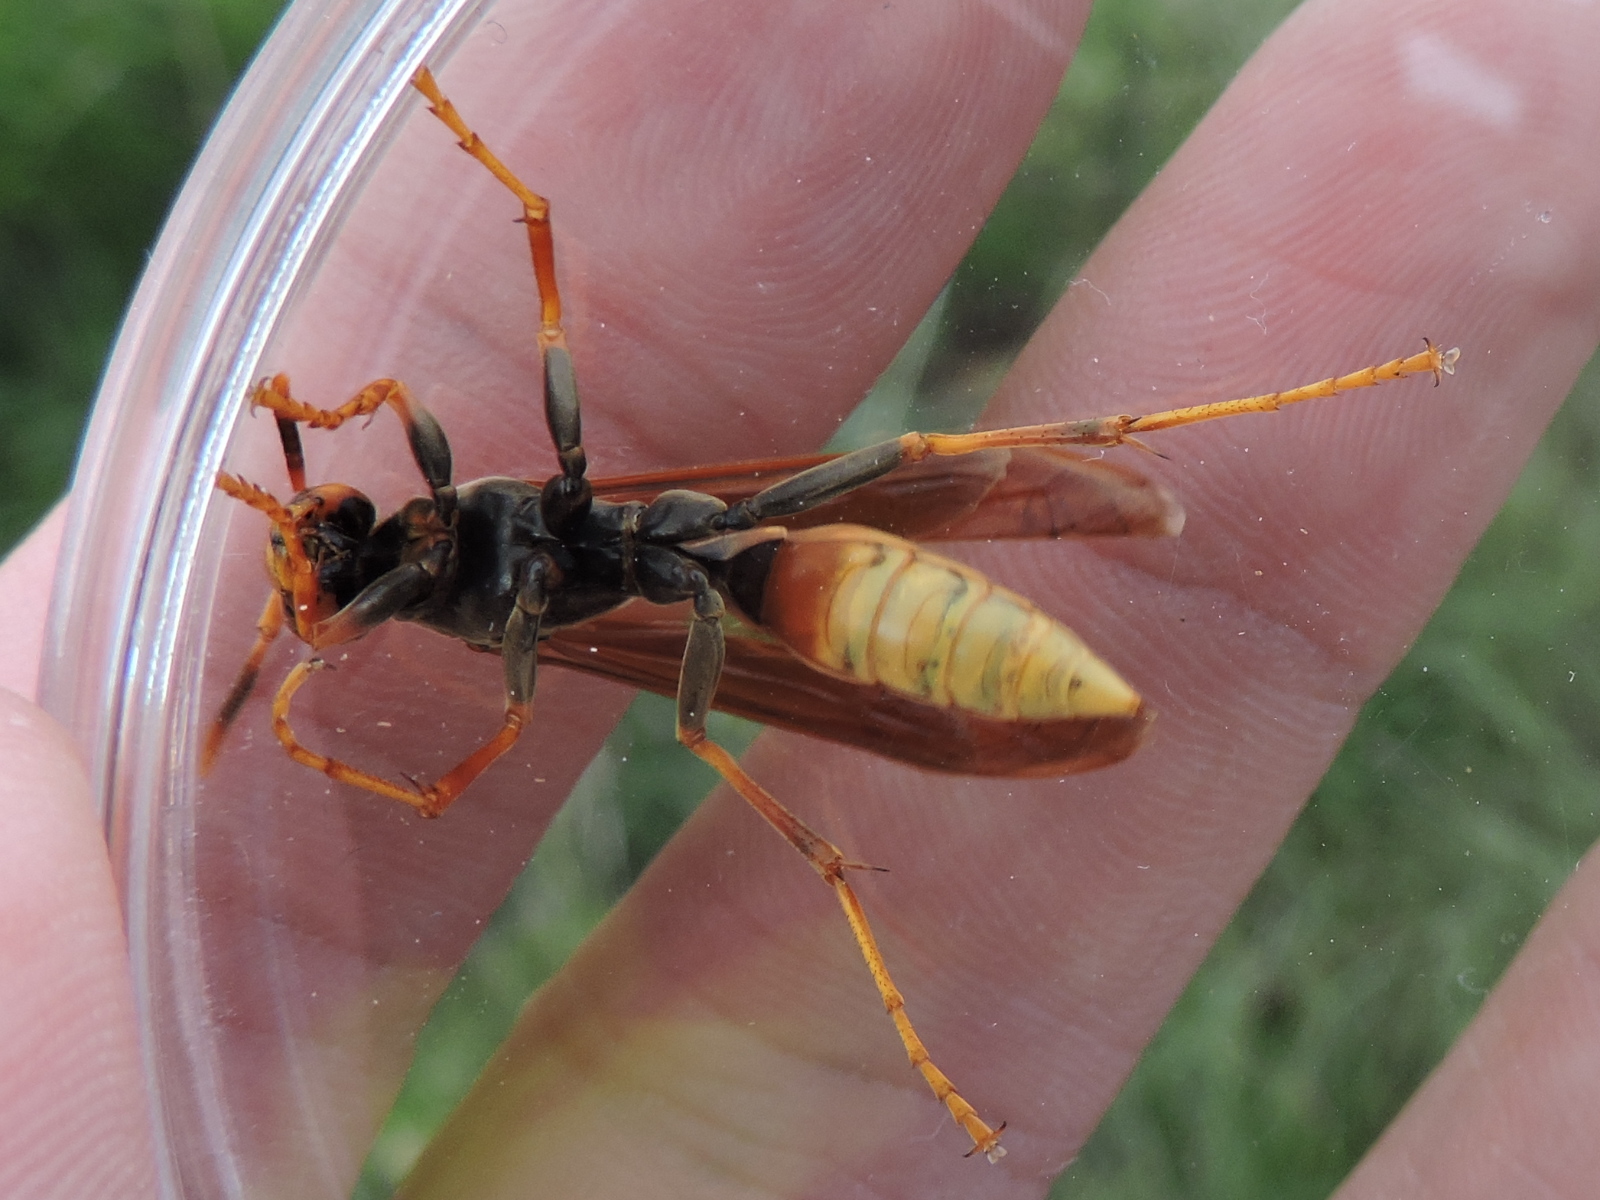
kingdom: Animalia
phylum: Arthropoda
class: Insecta
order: Hymenoptera
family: Eumenidae
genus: Polistes
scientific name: Polistes comanchus
